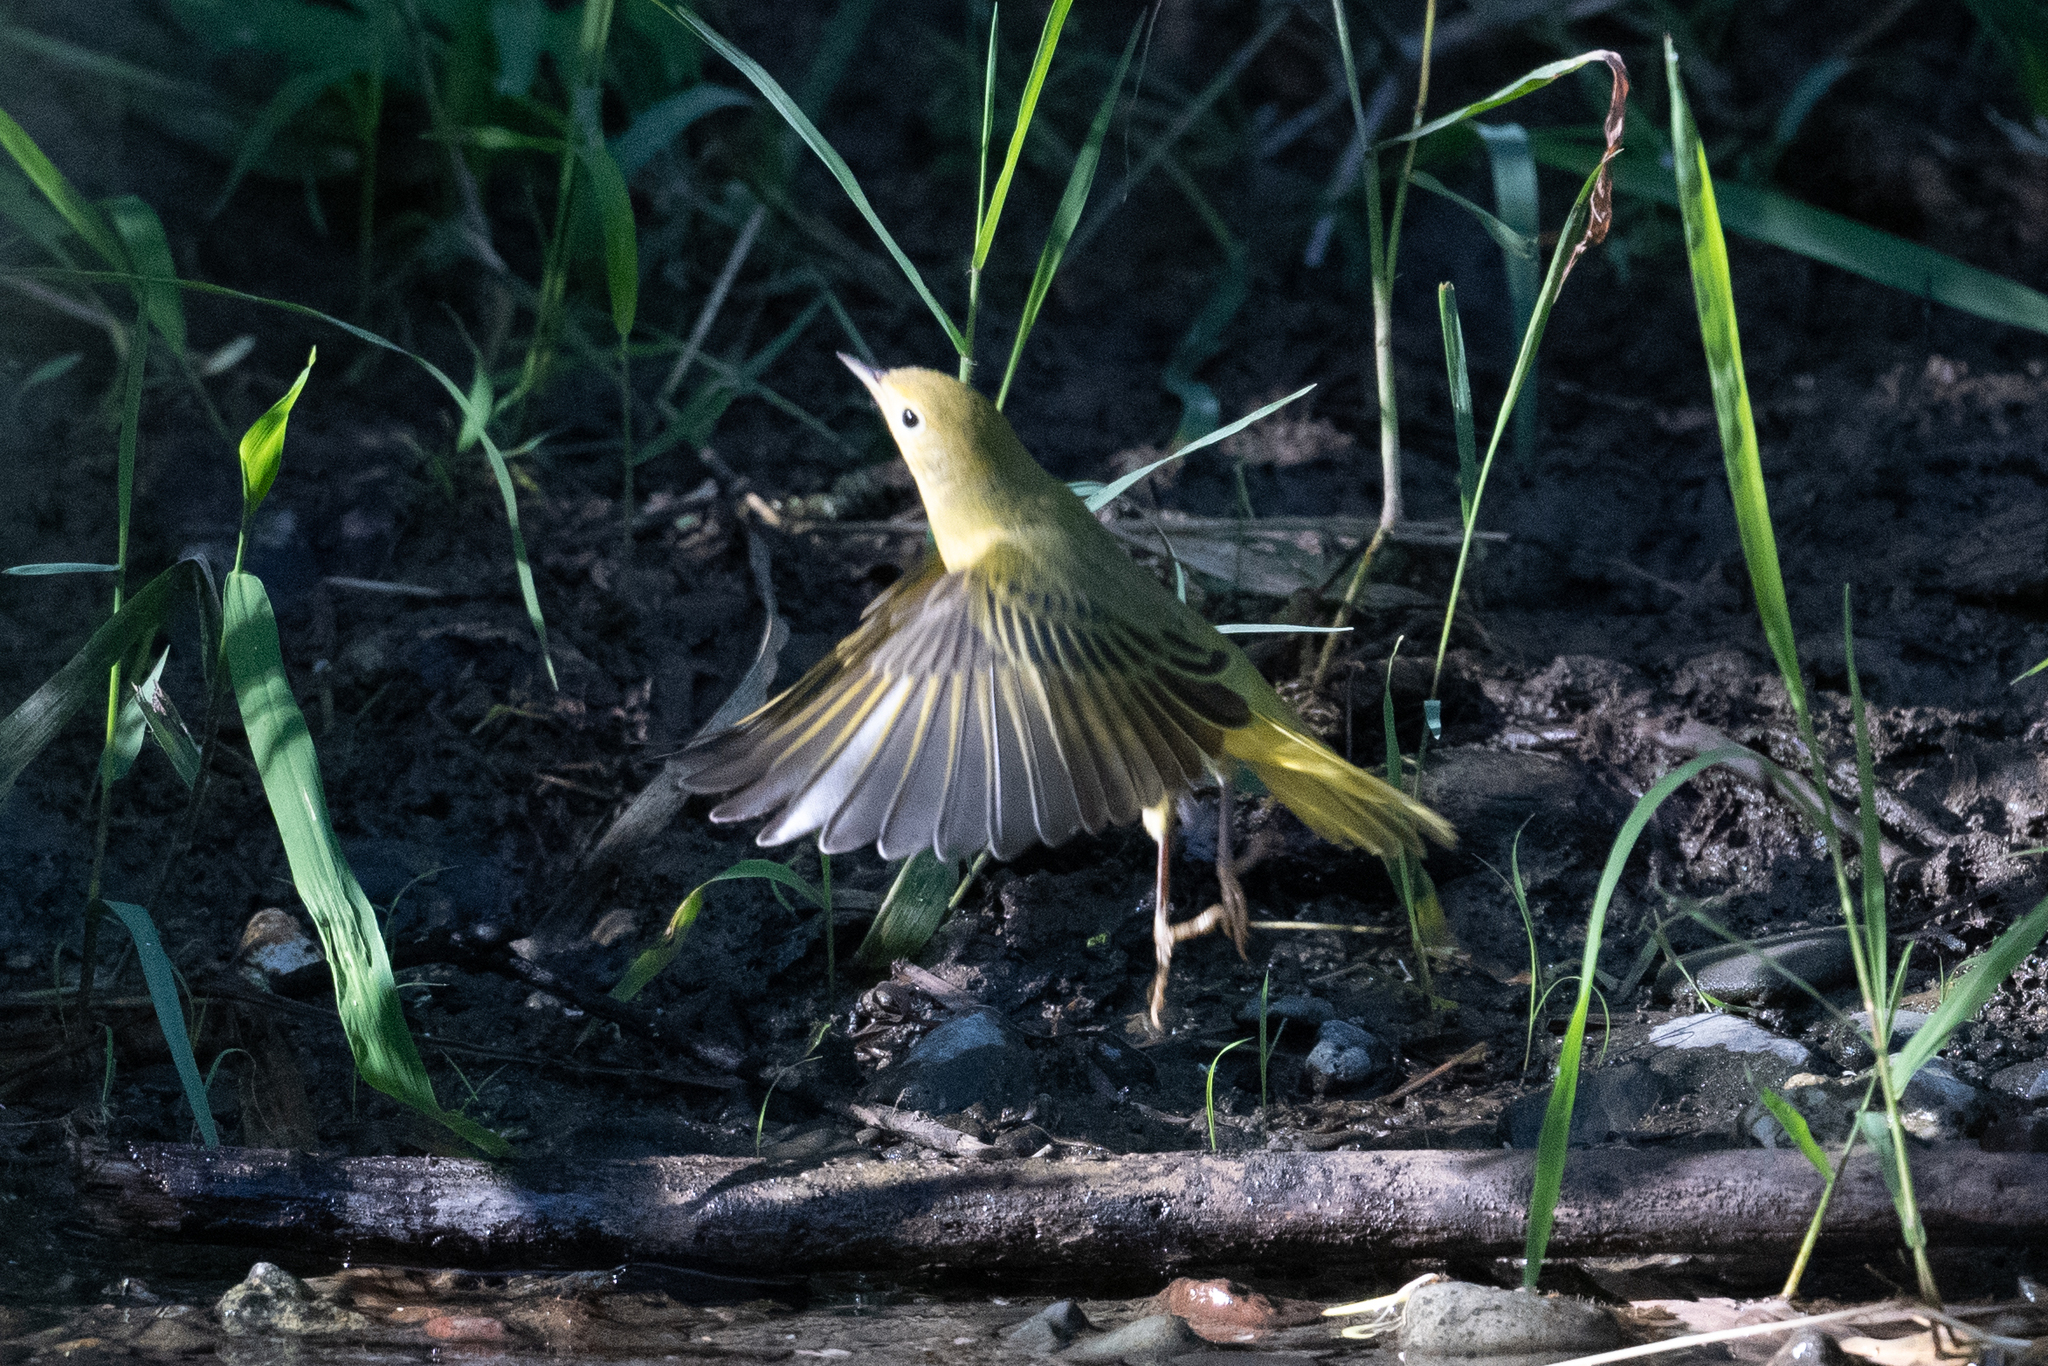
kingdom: Animalia
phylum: Chordata
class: Aves
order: Passeriformes
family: Parulidae
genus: Setophaga
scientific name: Setophaga petechia
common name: Yellow warbler
